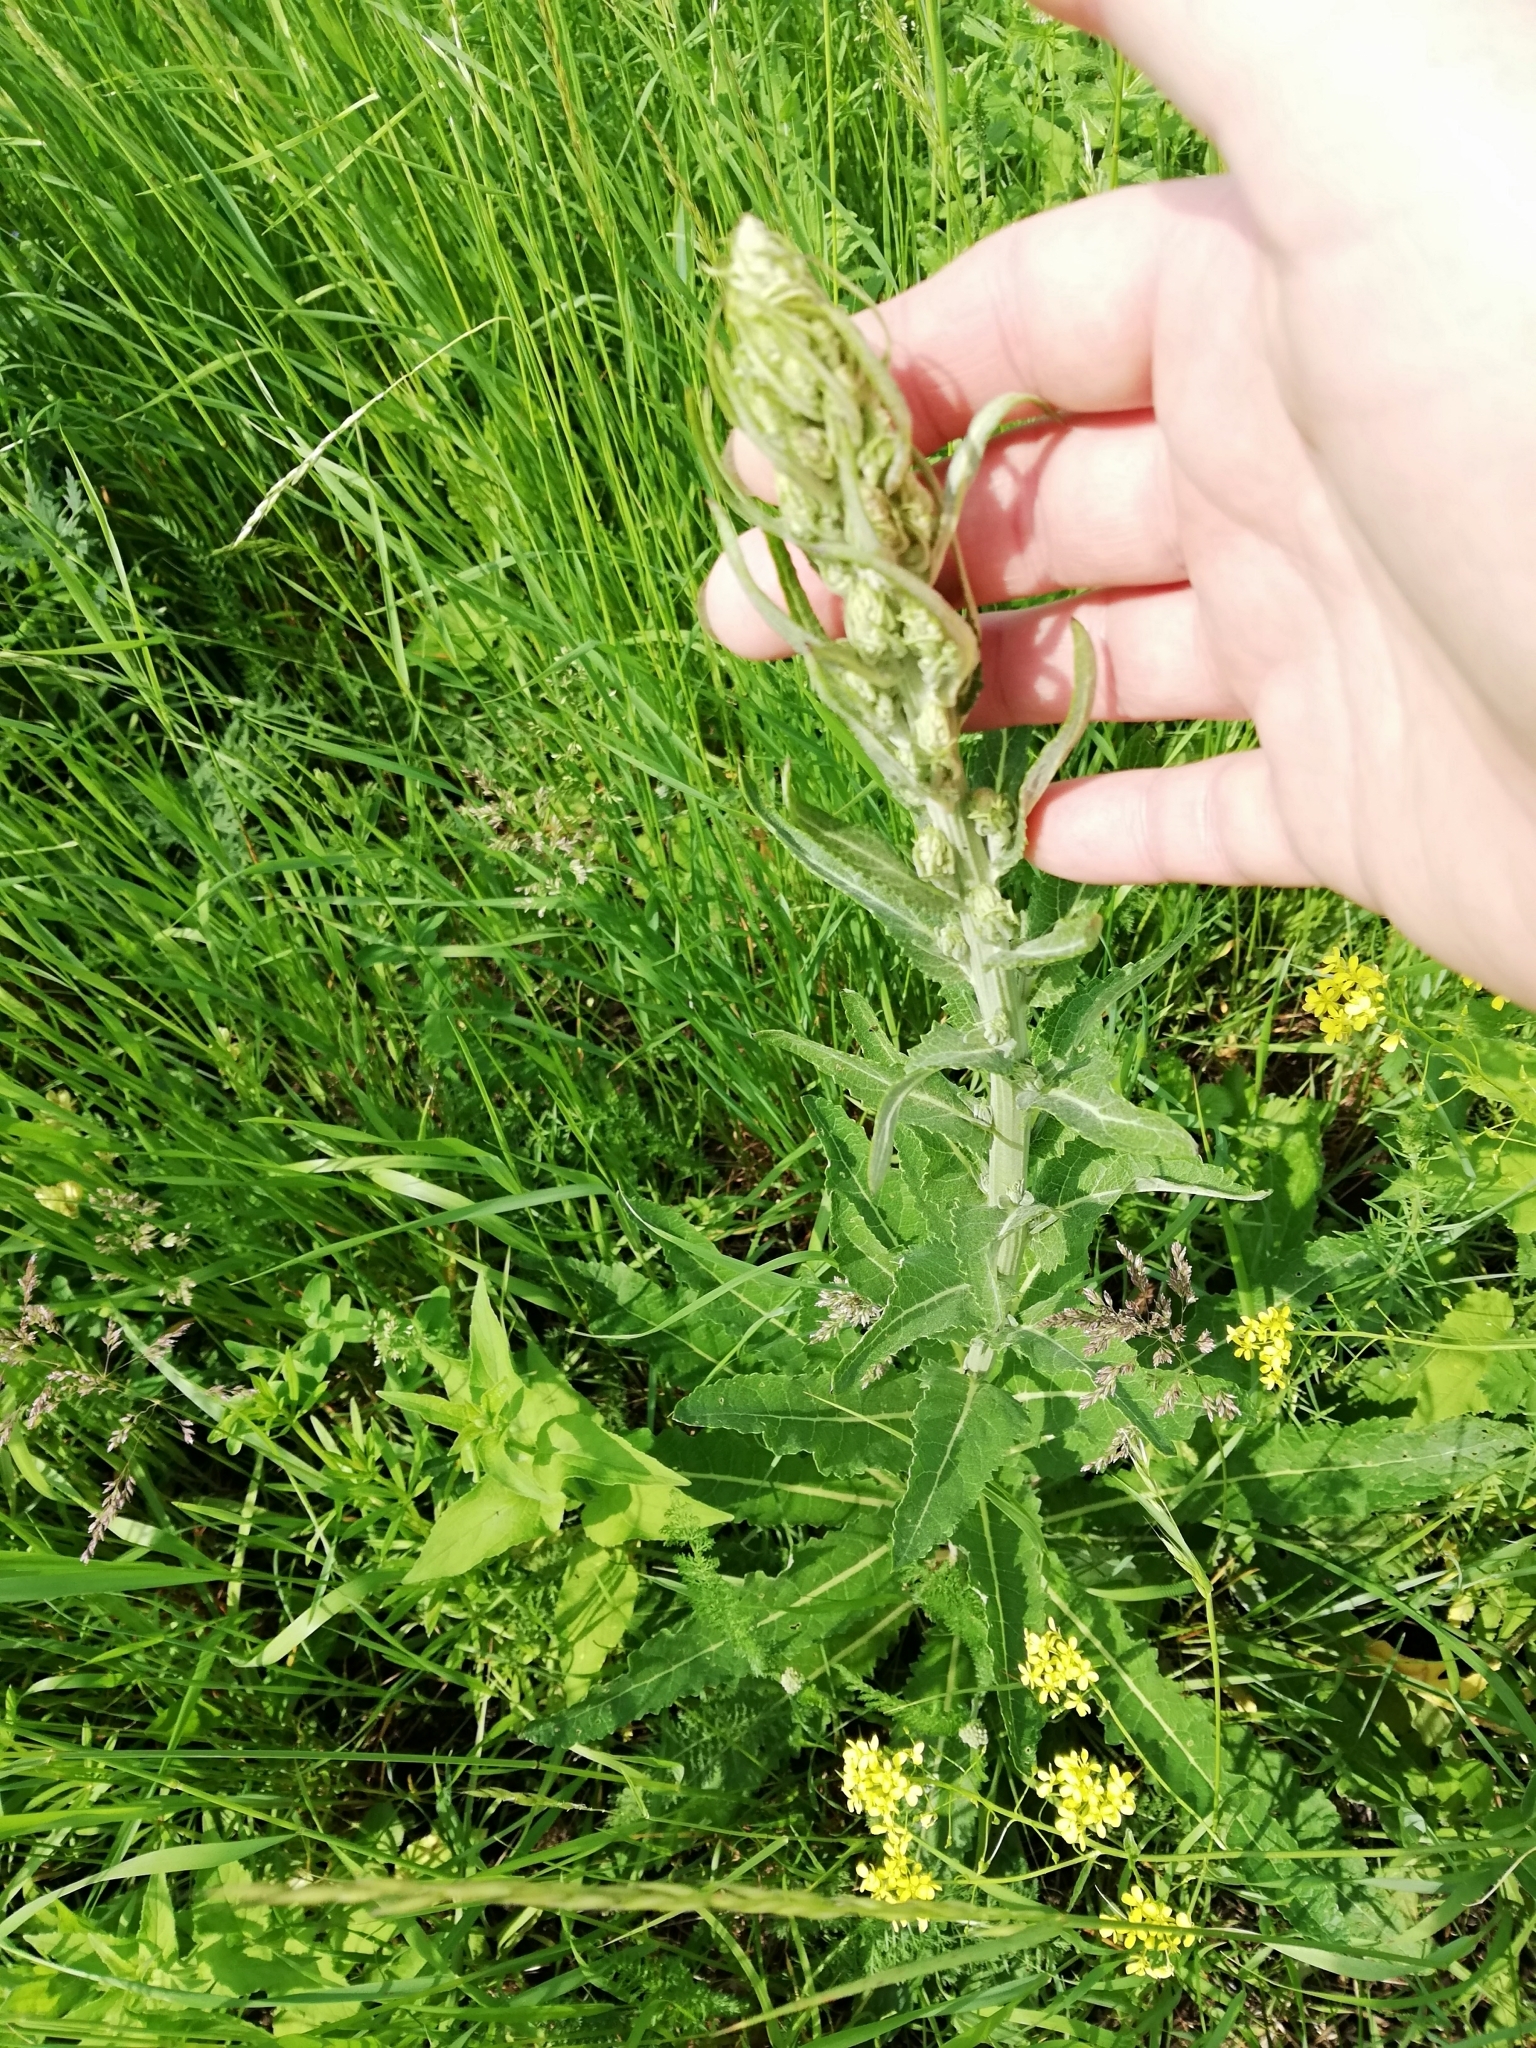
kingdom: Plantae
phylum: Tracheophyta
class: Magnoliopsida
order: Lamiales
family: Scrophulariaceae
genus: Verbascum
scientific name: Verbascum lychnitis
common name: White mullein
